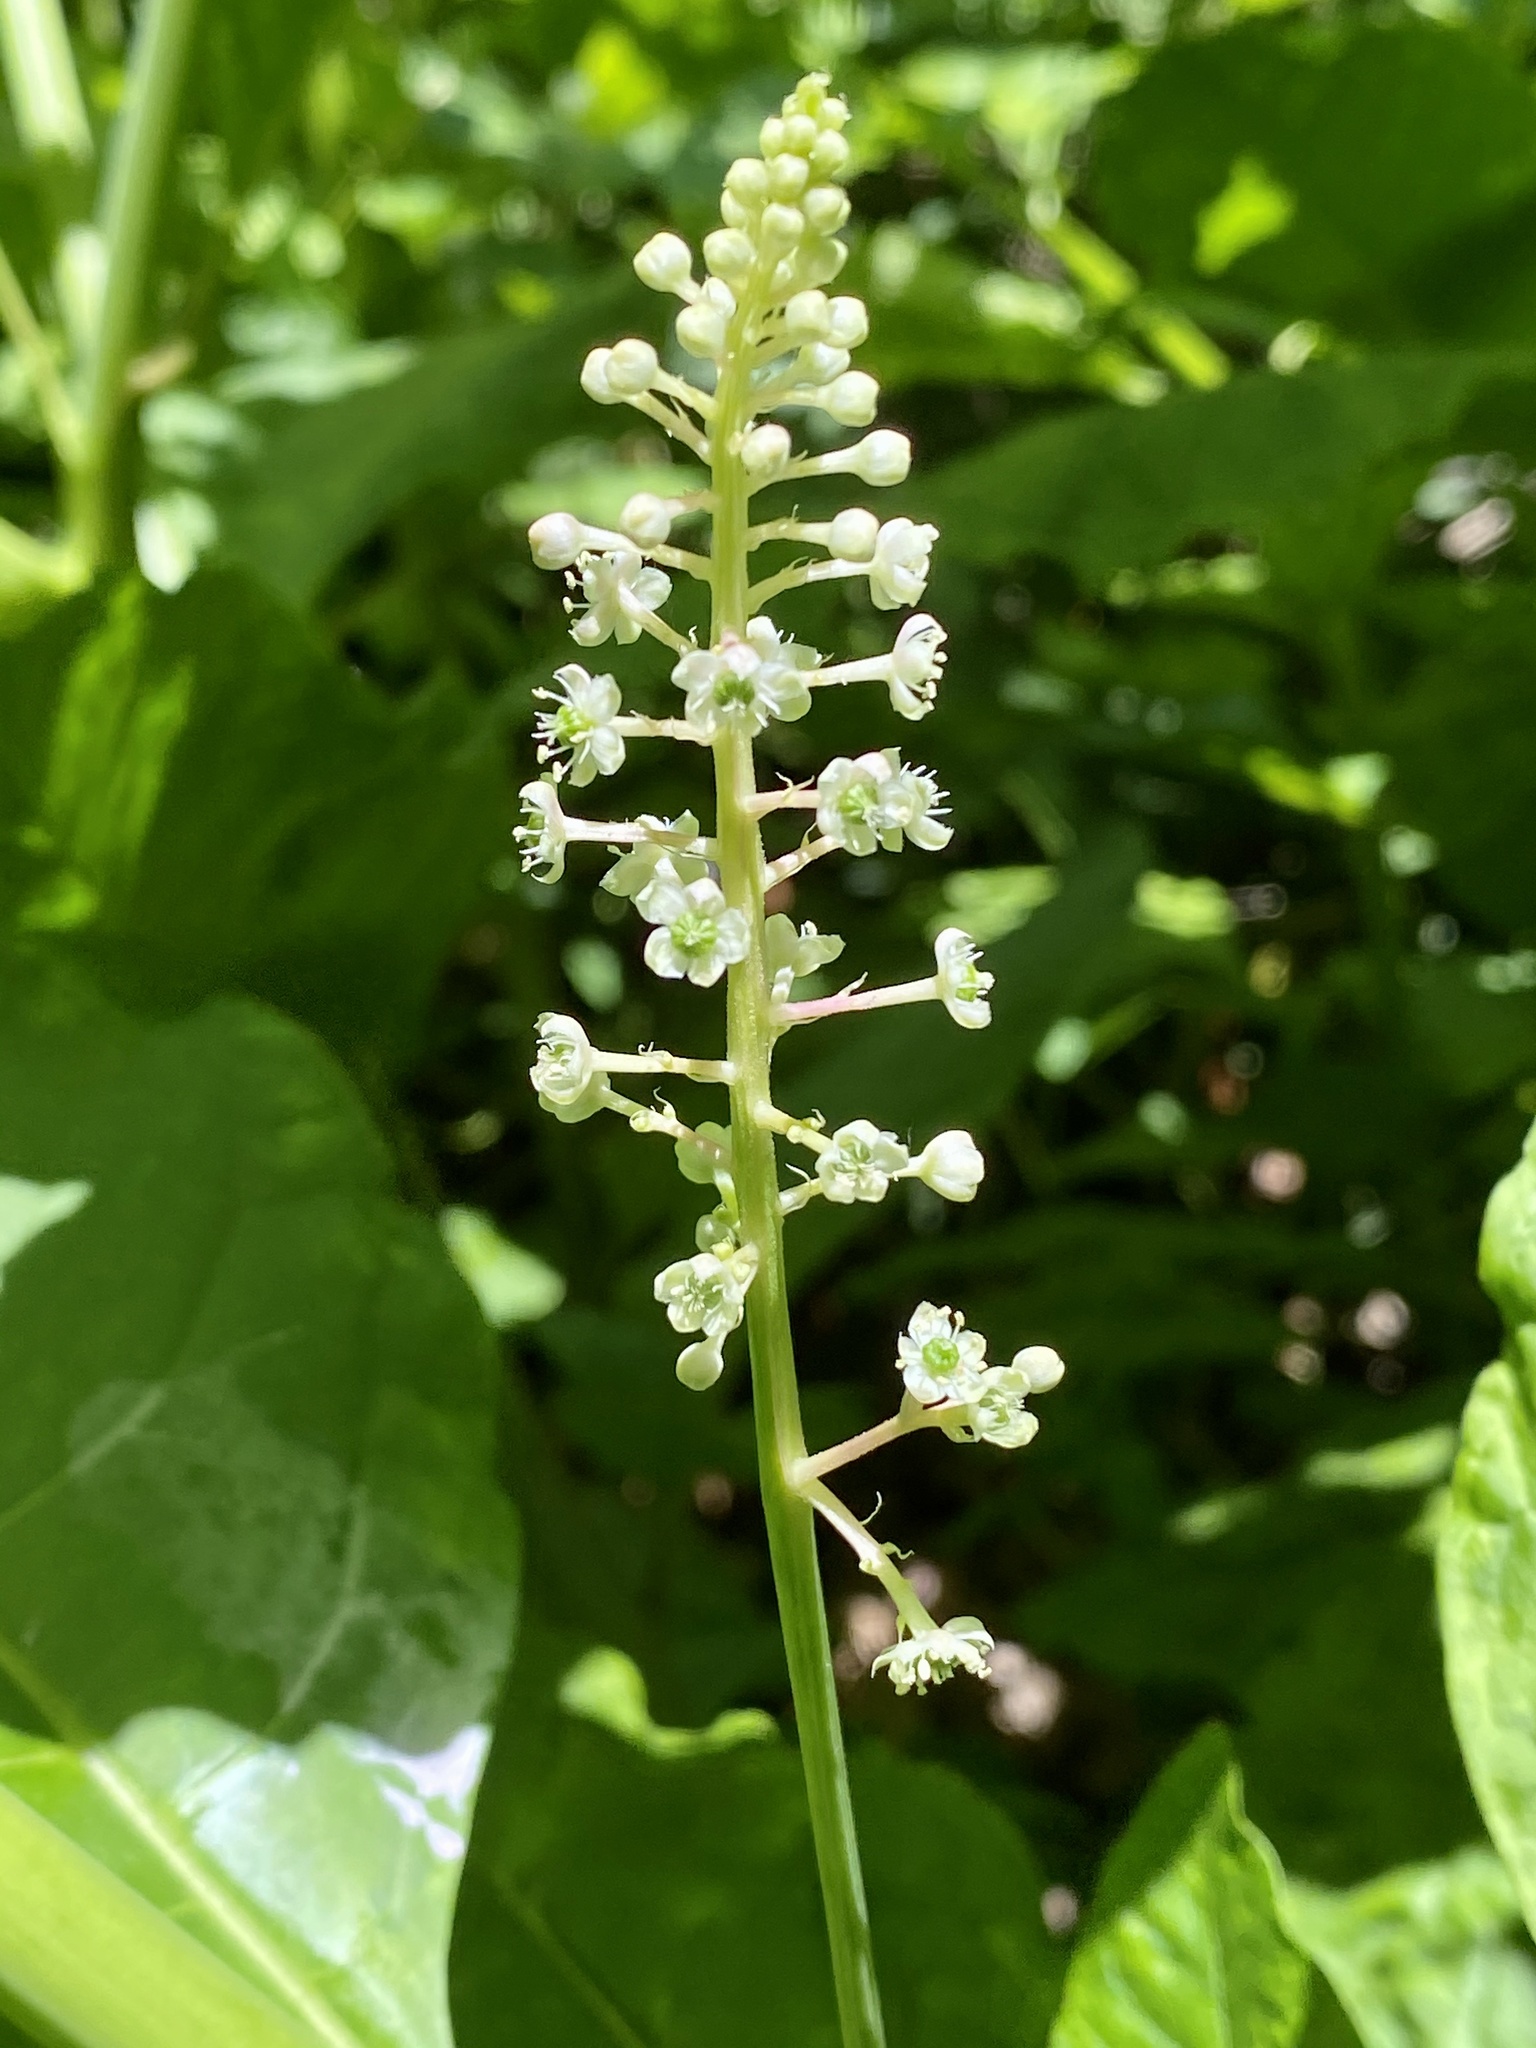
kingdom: Plantae
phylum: Tracheophyta
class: Magnoliopsida
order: Caryophyllales
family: Phytolaccaceae
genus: Phytolacca
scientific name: Phytolacca americana
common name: American pokeweed
